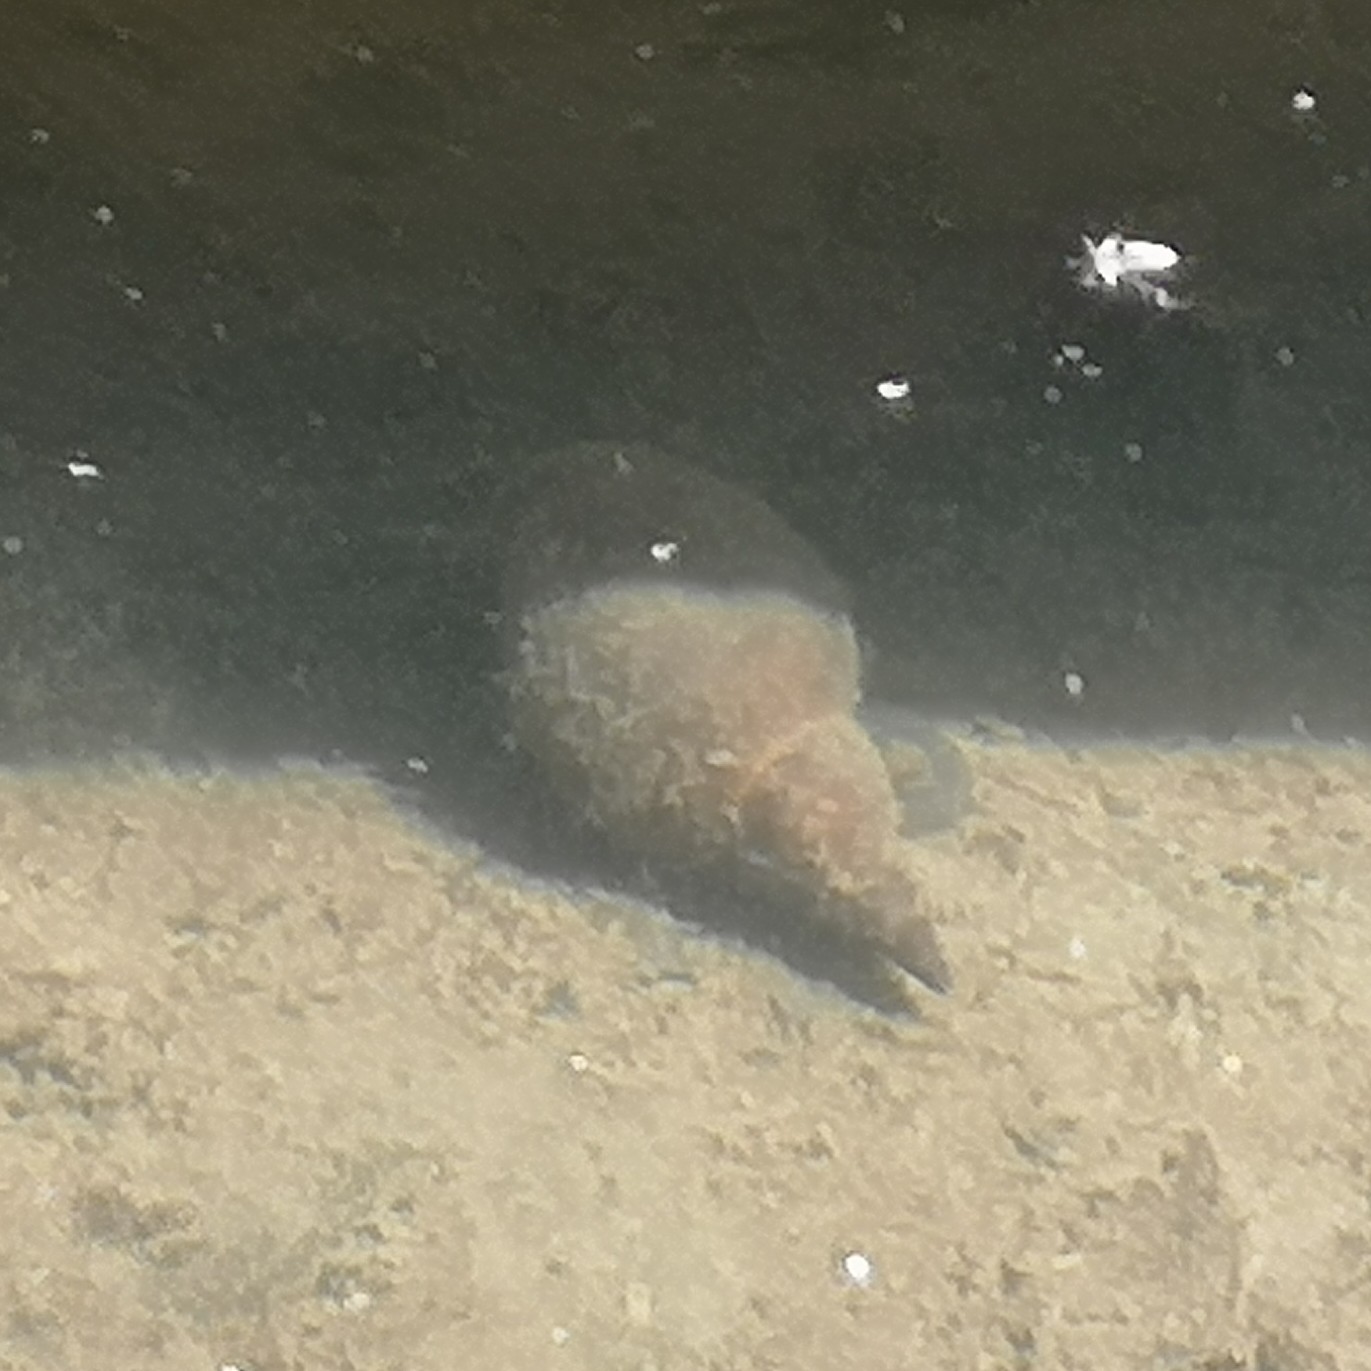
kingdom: Animalia
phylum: Mollusca
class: Gastropoda
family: Lymnaeidae
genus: Lymnaea
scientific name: Lymnaea stagnalis
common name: Great pond snail
